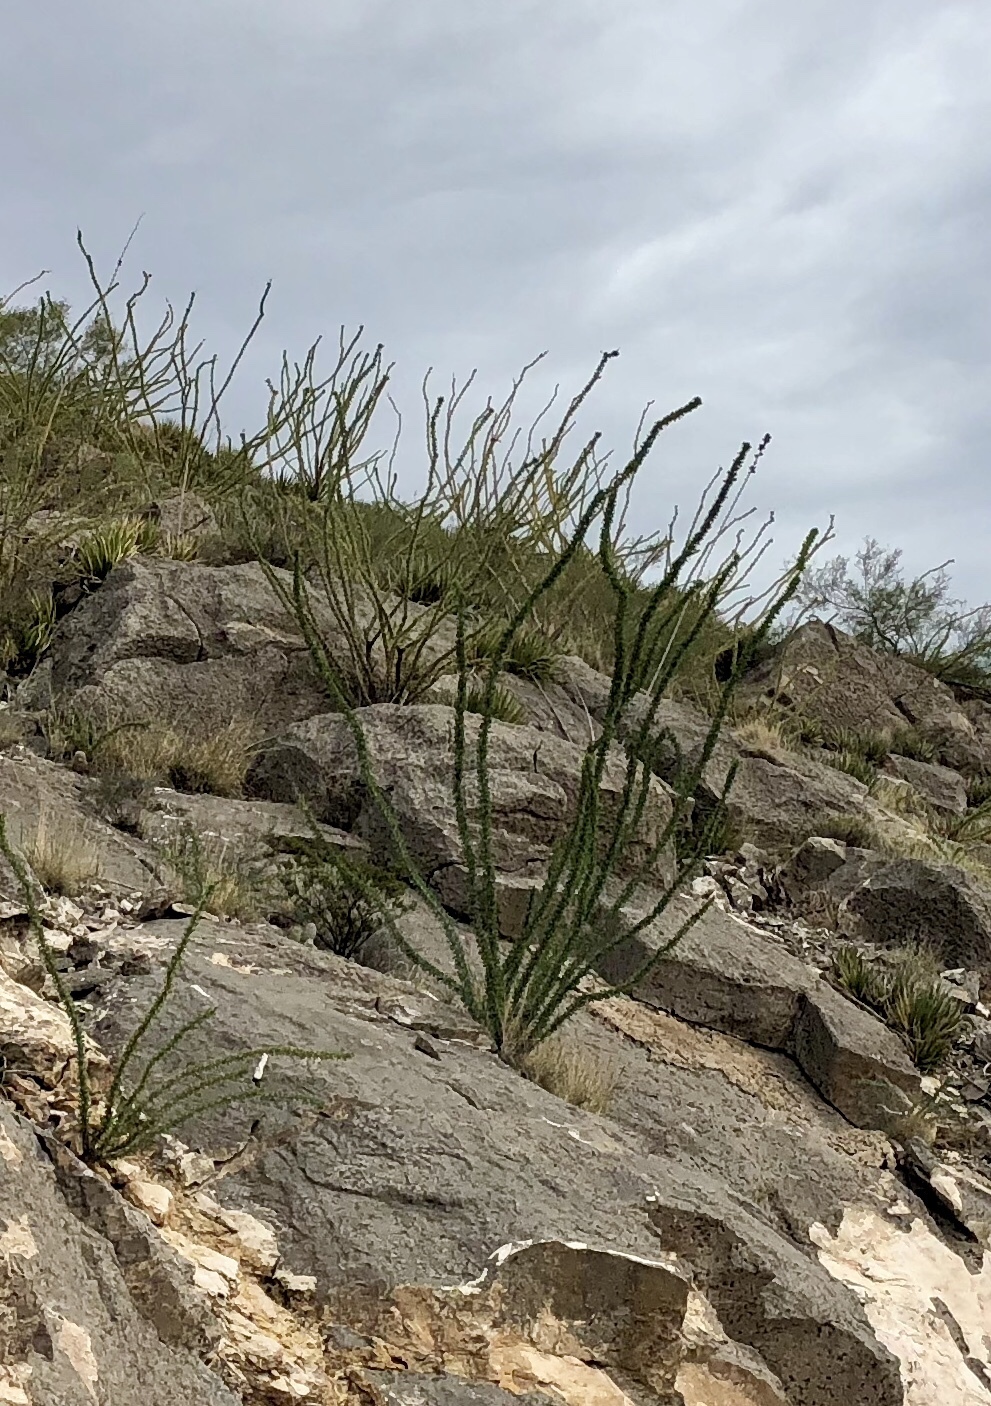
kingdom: Plantae
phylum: Tracheophyta
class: Magnoliopsida
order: Ericales
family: Fouquieriaceae
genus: Fouquieria
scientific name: Fouquieria splendens
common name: Vine-cactus
